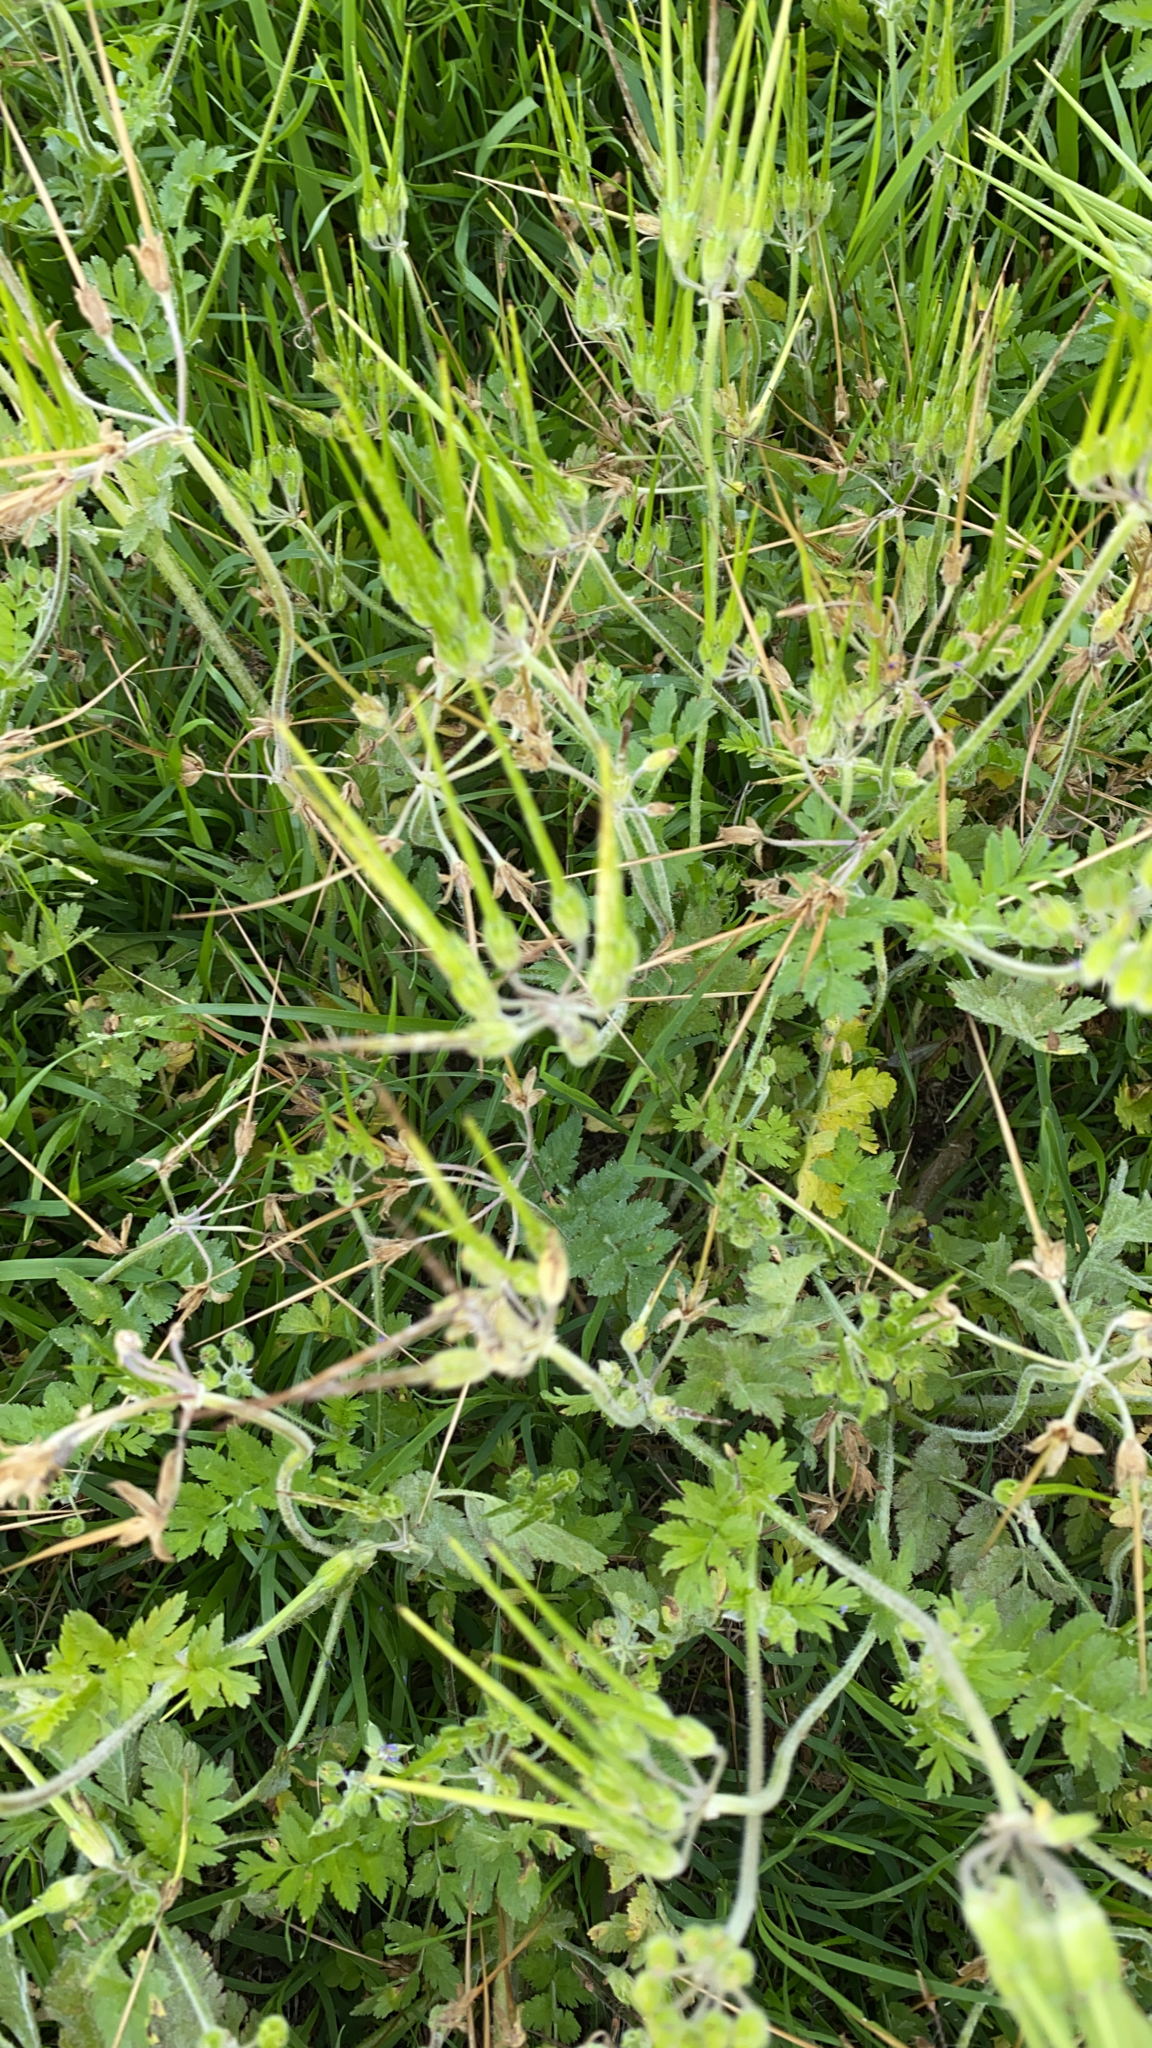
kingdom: Plantae
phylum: Tracheophyta
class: Magnoliopsida
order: Geraniales
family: Geraniaceae
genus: Erodium
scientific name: Erodium moschatum
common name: Musk stork's-bill
